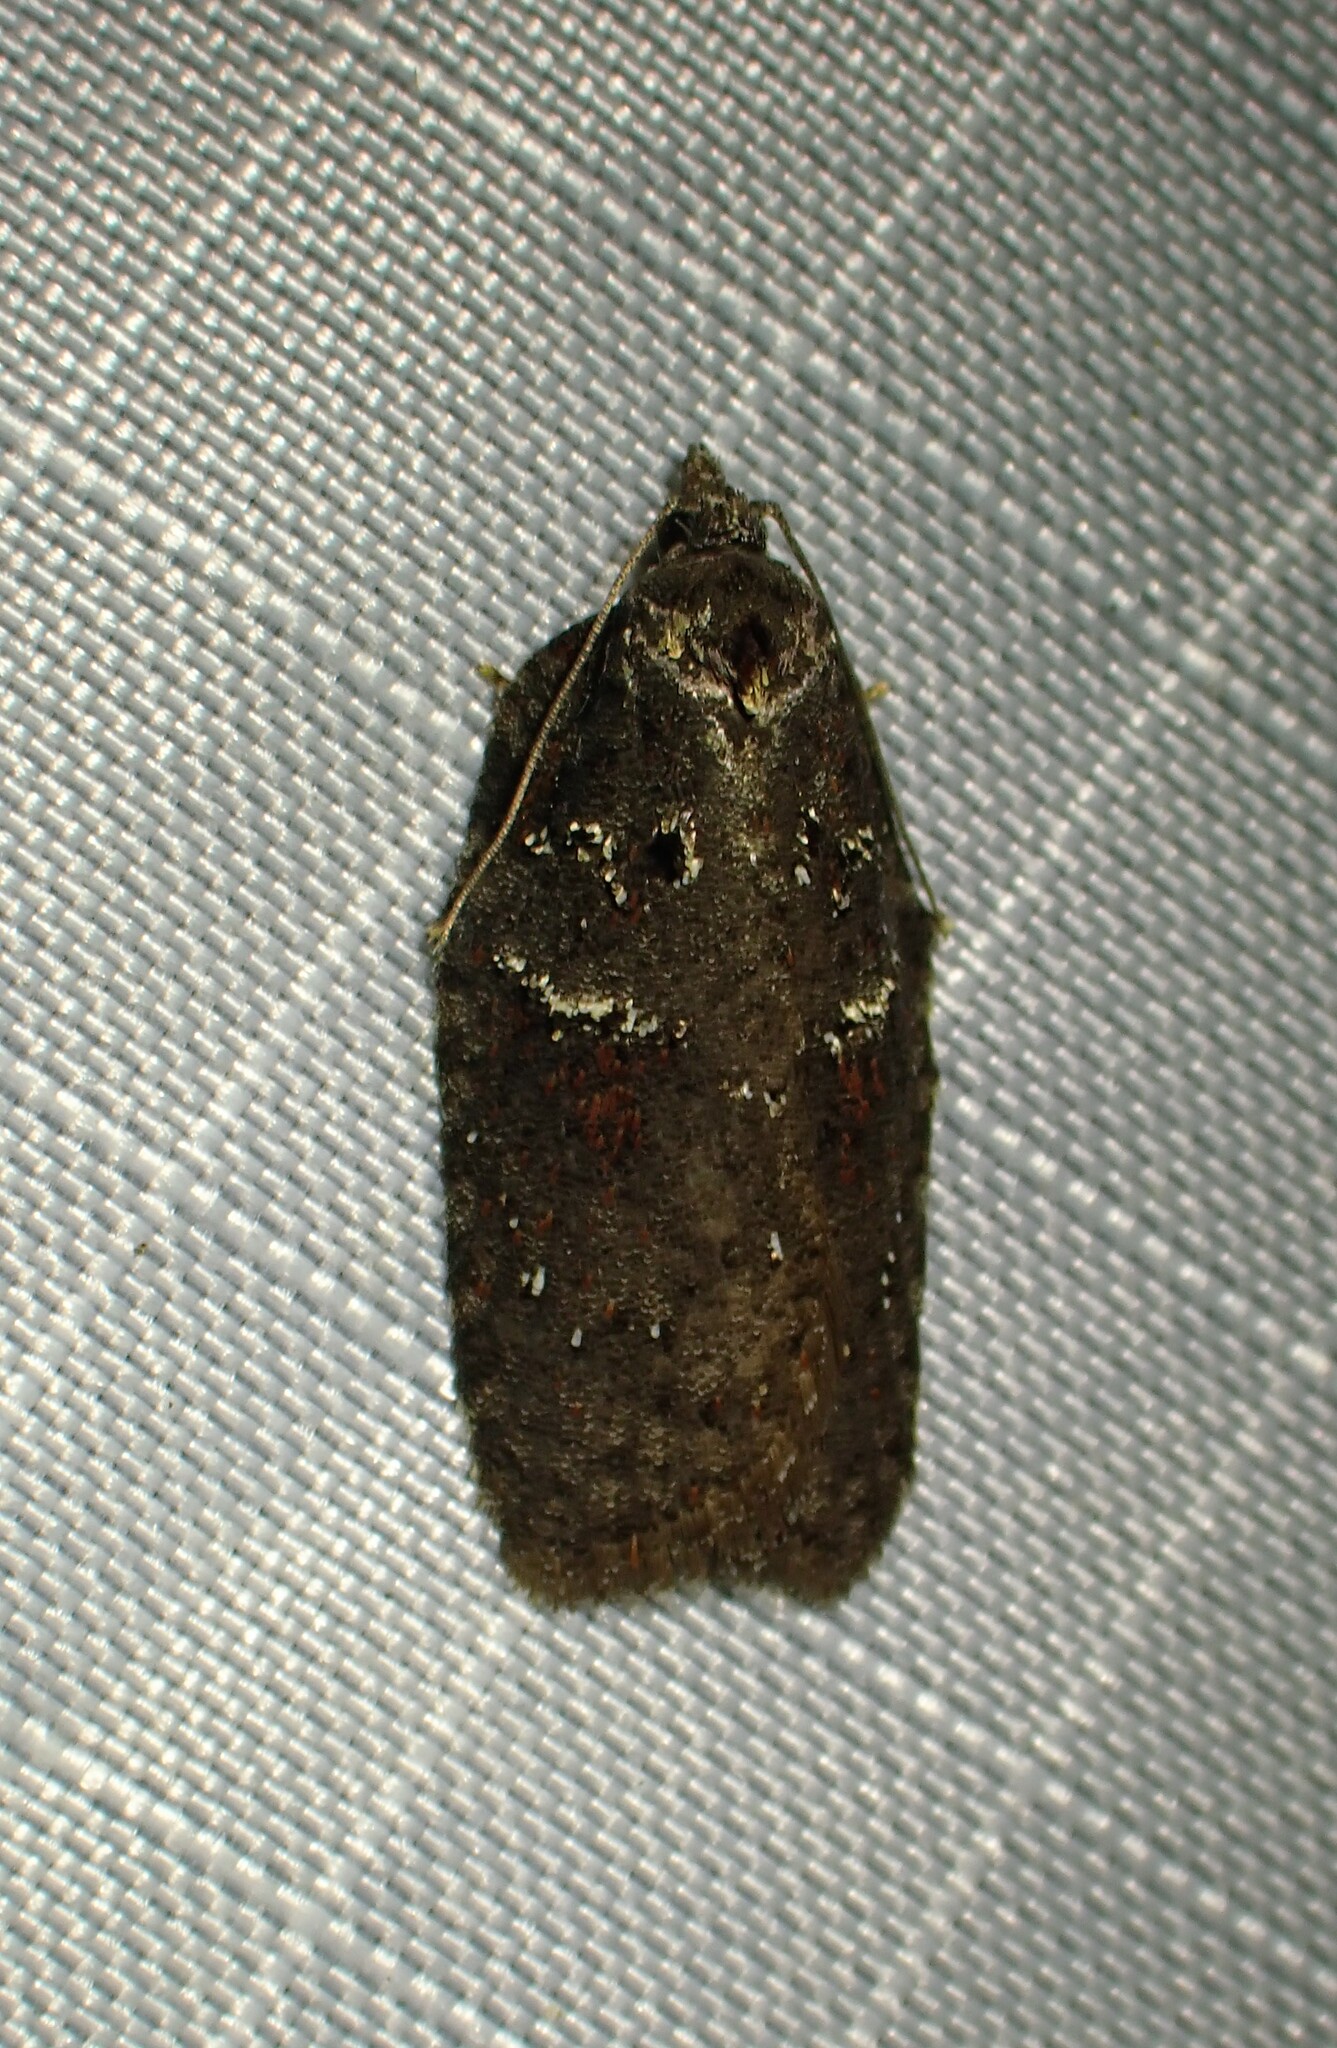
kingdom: Animalia
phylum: Arthropoda
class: Insecta
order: Lepidoptera
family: Tortricidae
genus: Acleris
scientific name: Acleris caliginosana
